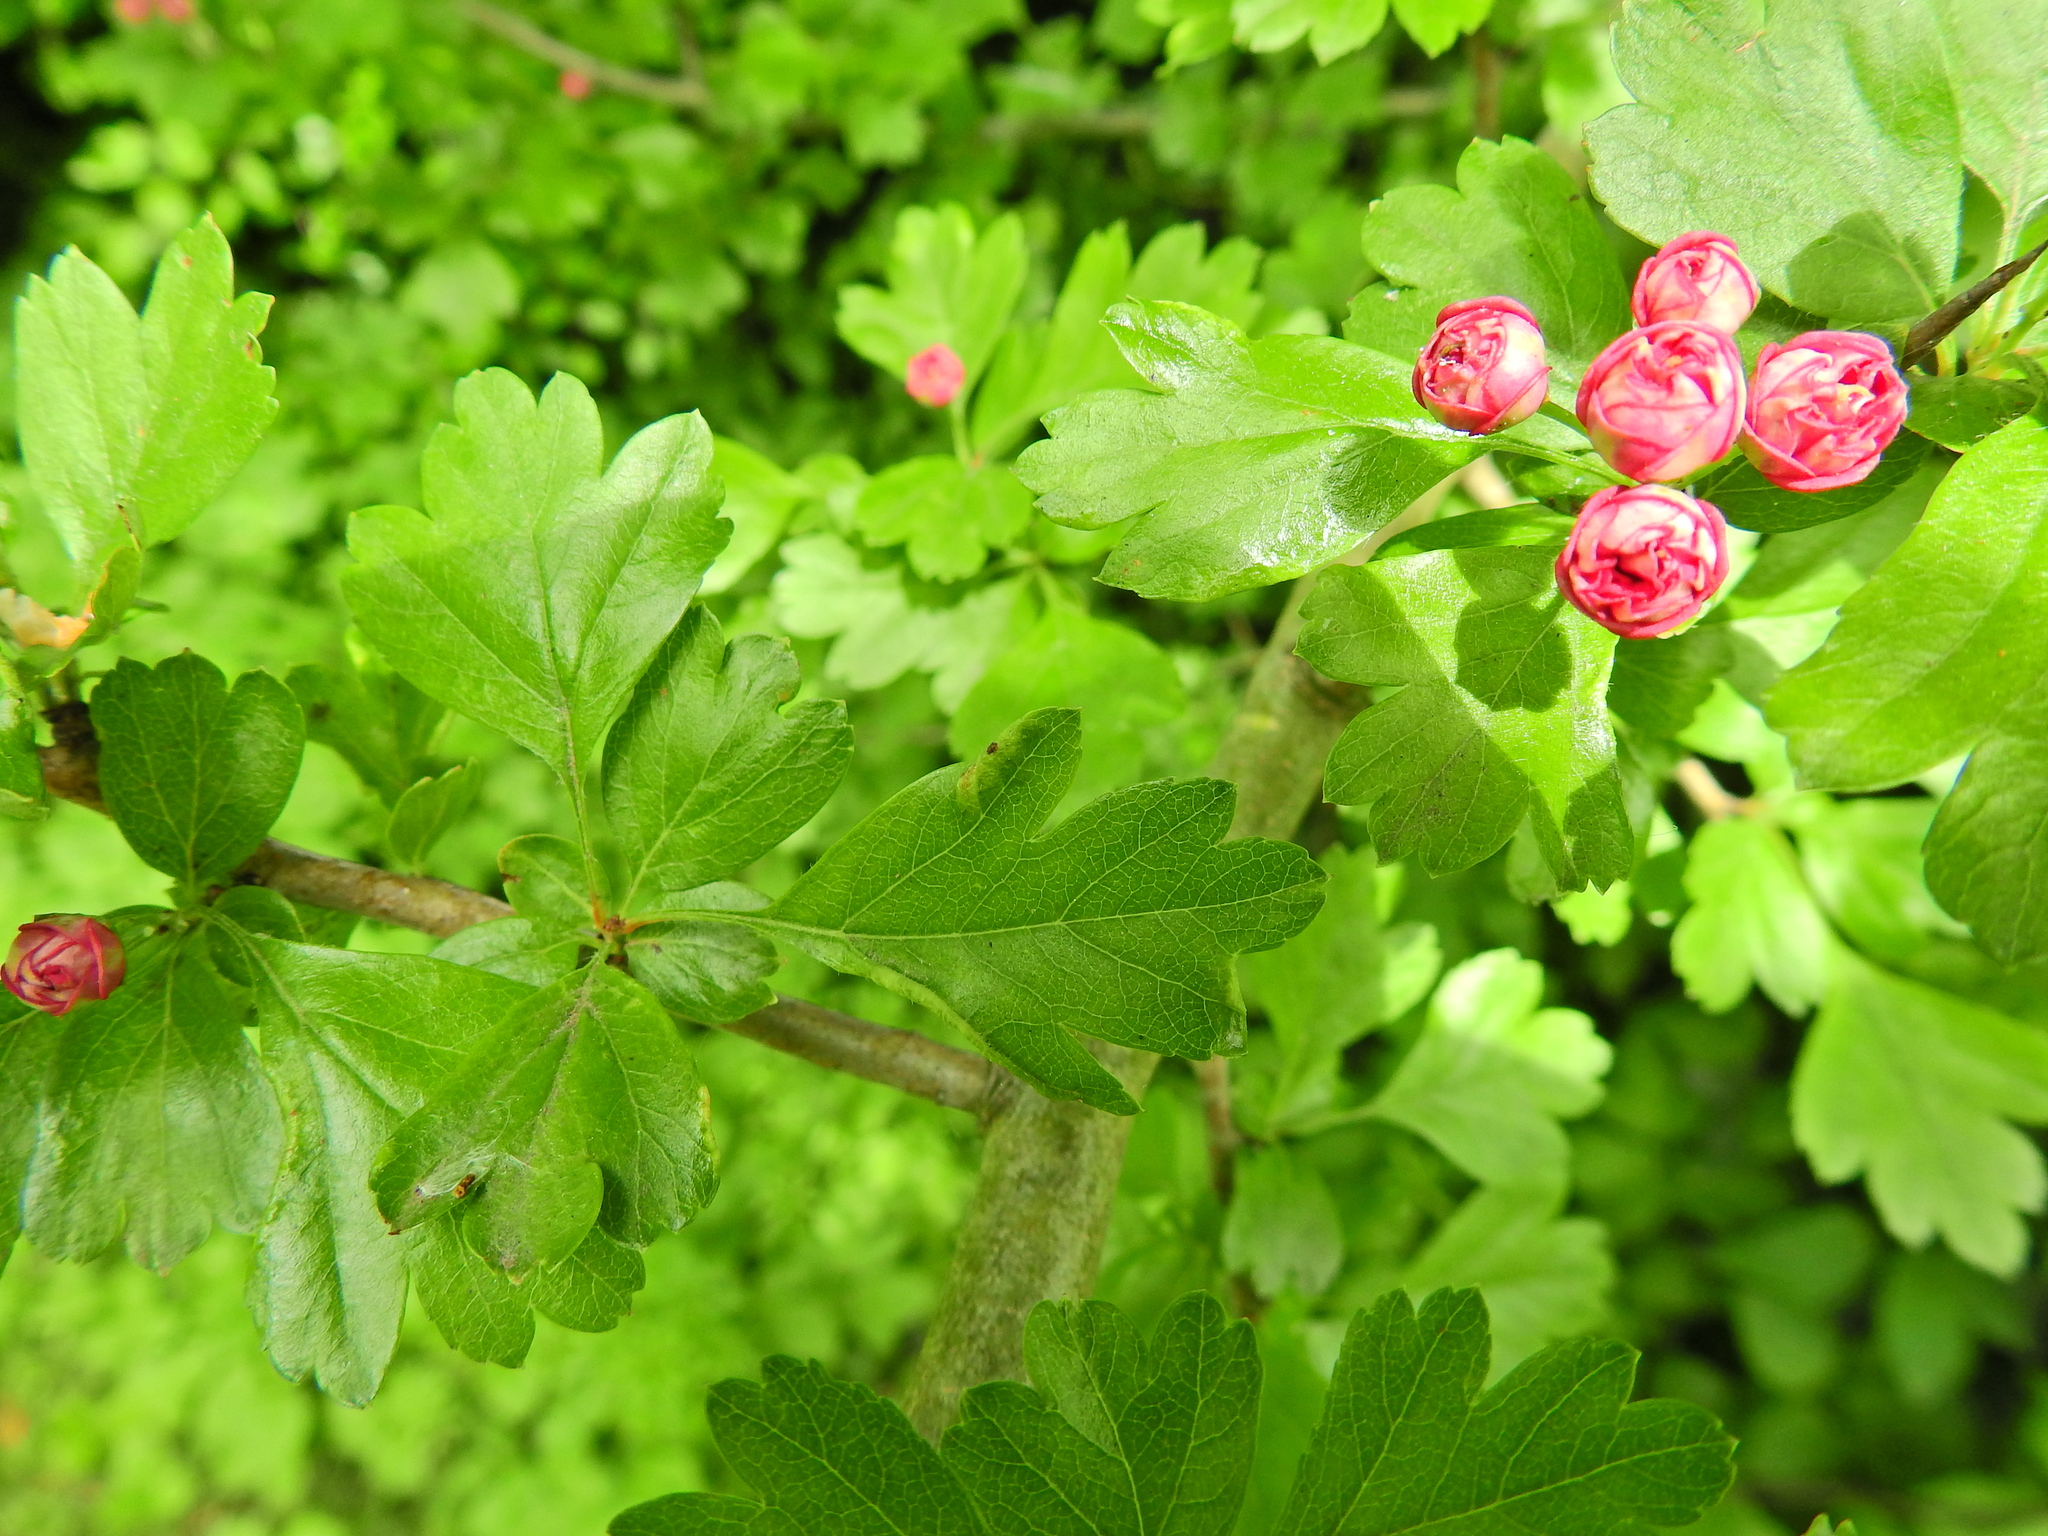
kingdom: Plantae
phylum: Tracheophyta
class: Magnoliopsida
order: Rosales
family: Rosaceae
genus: Crataegus
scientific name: Crataegus monogyna
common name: Hawthorn
